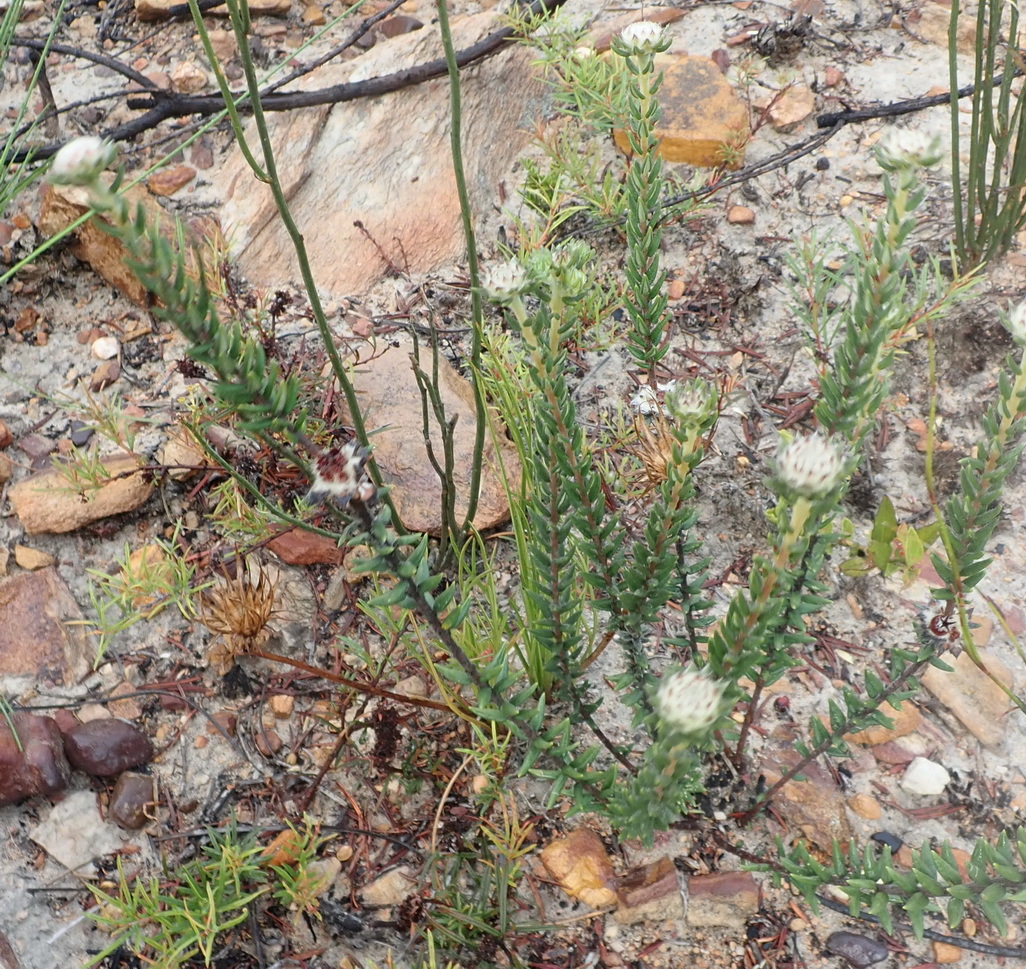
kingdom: Plantae
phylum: Tracheophyta
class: Magnoliopsida
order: Rosales
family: Rhamnaceae
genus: Phylica
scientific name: Phylica propinqua
